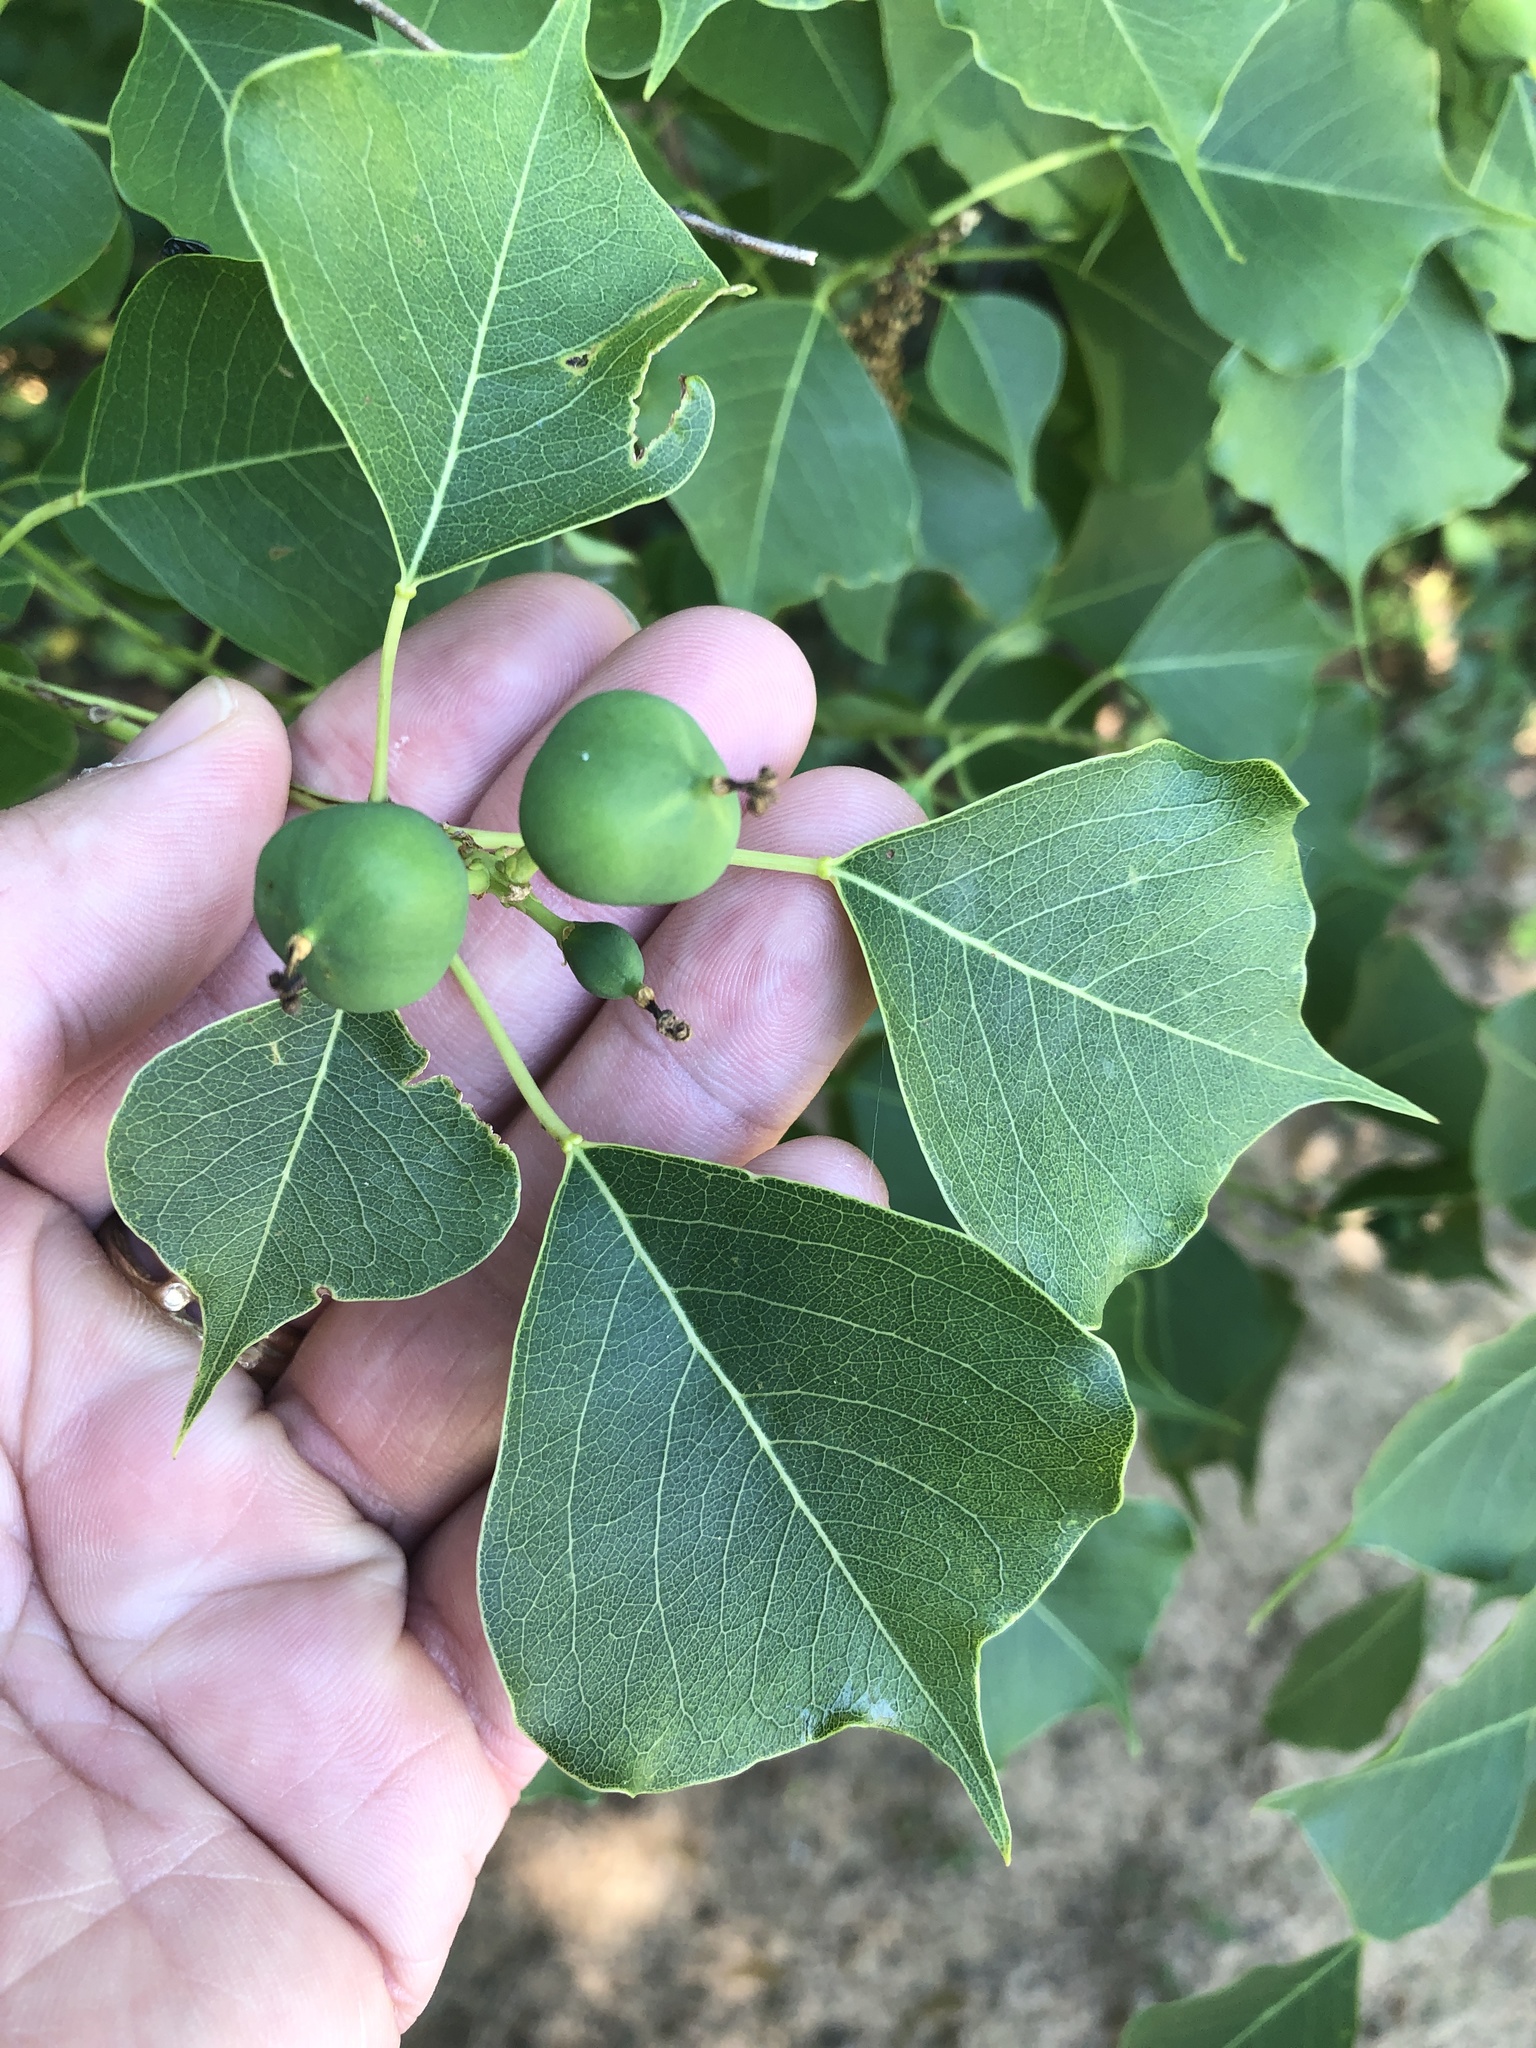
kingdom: Plantae
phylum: Tracheophyta
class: Magnoliopsida
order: Malpighiales
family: Euphorbiaceae
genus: Triadica
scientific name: Triadica sebifera
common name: Chinese tallow
